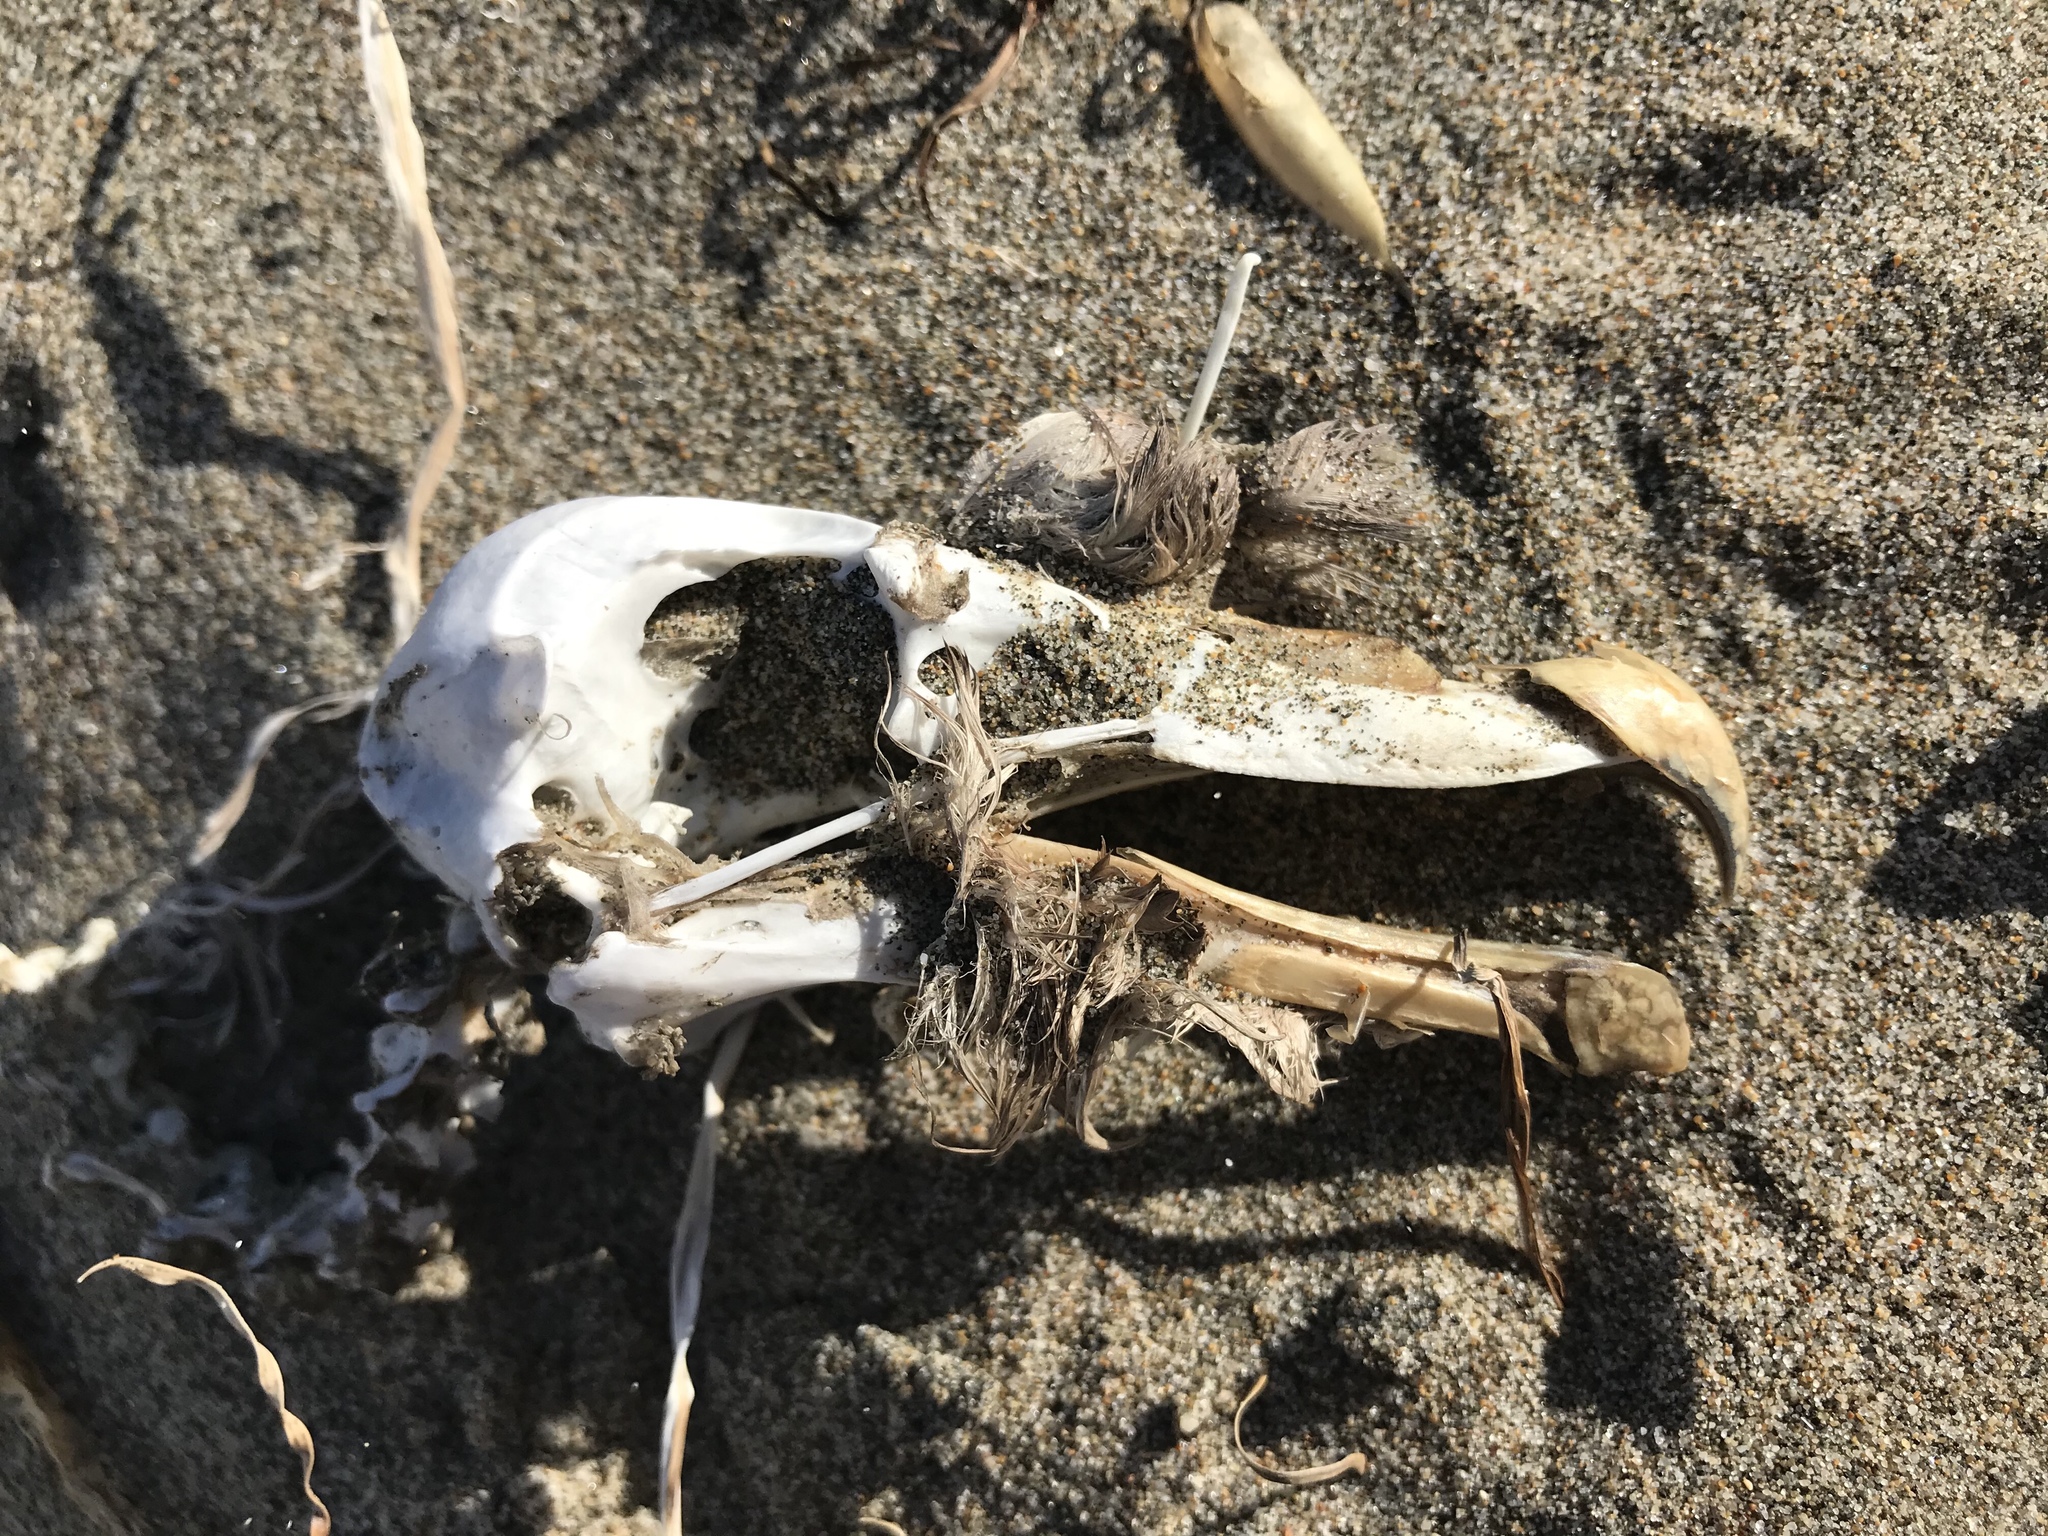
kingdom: Animalia
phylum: Chordata
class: Aves
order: Procellariiformes
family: Procellariidae
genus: Fulmarus
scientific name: Fulmarus glacialis
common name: Northern fulmar
